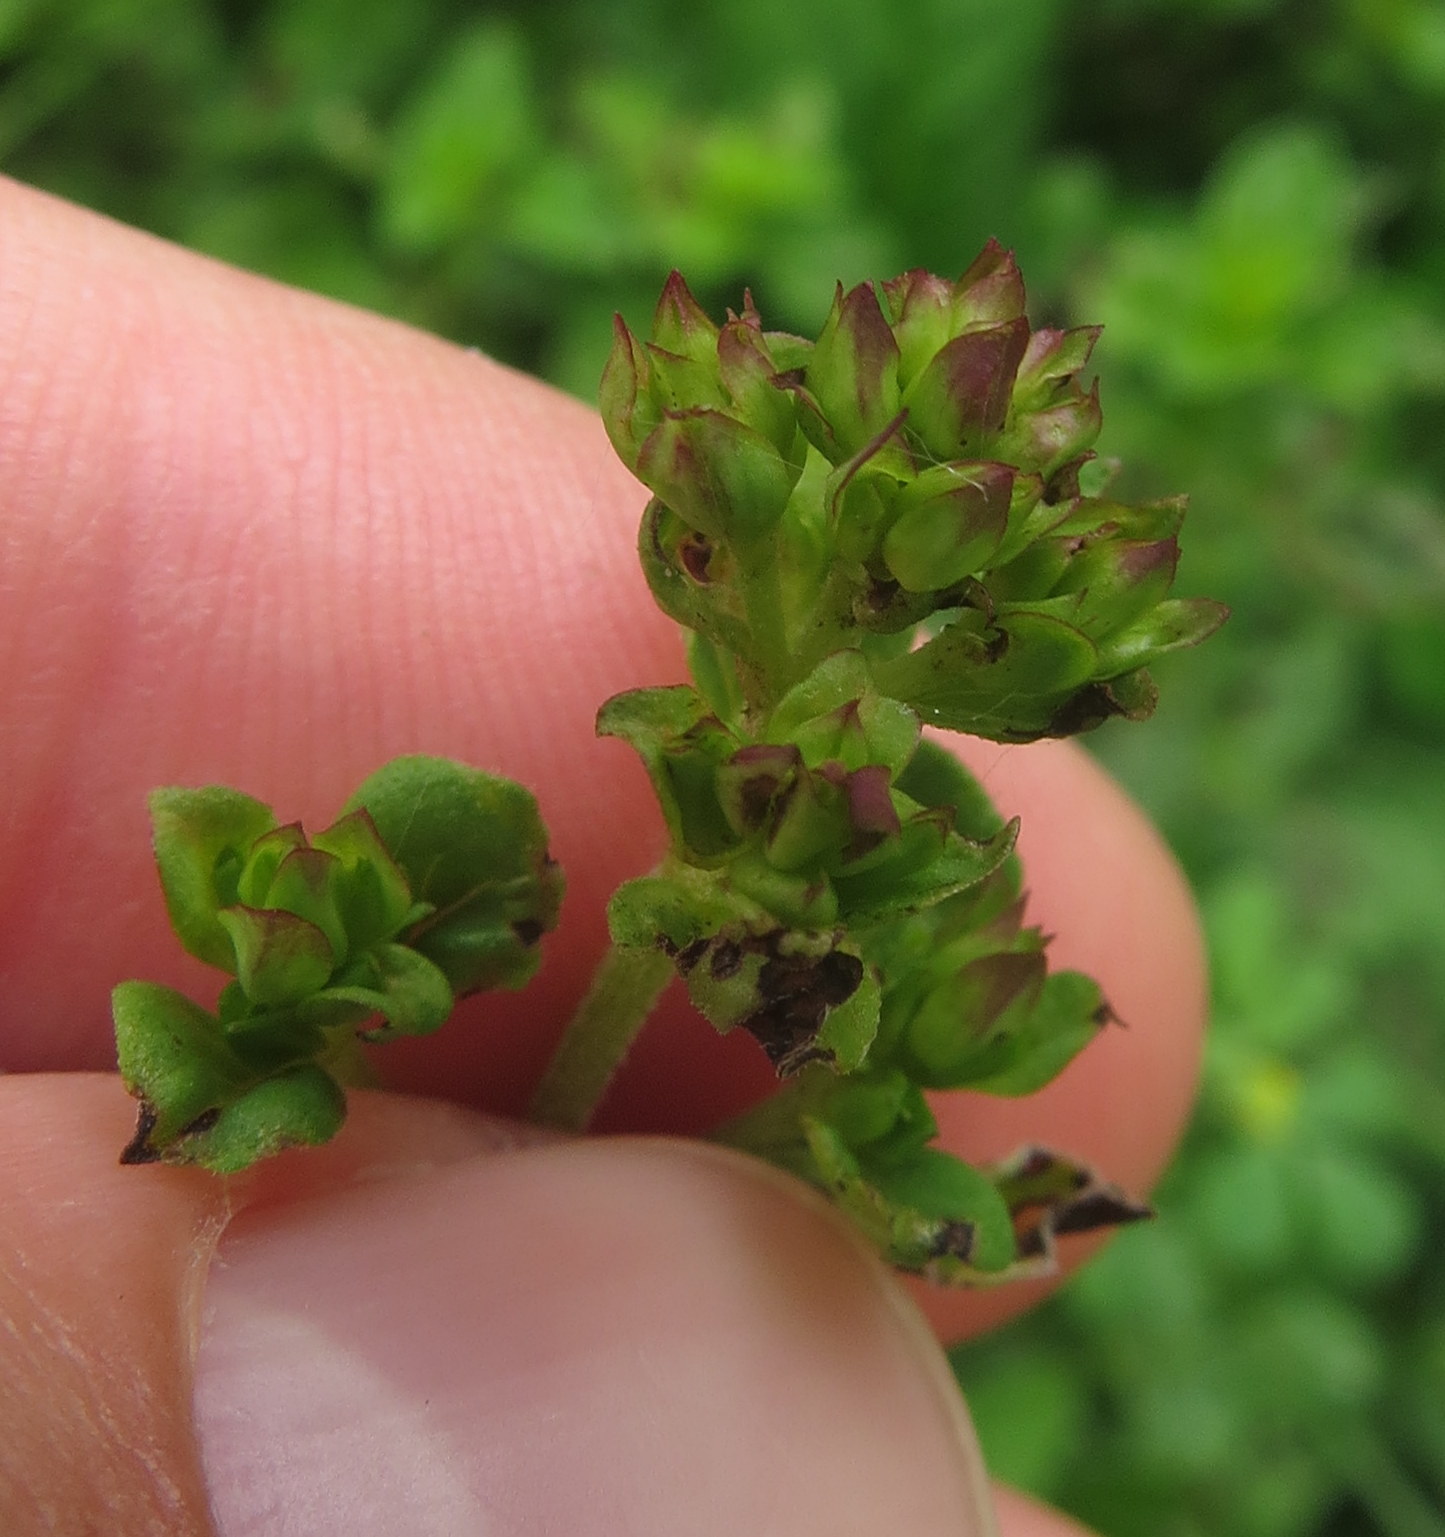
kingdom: Plantae
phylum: Tracheophyta
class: Magnoliopsida
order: Lamiales
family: Lamiaceae
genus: Origanum
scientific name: Origanum vulgare
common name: Wild marjoram
